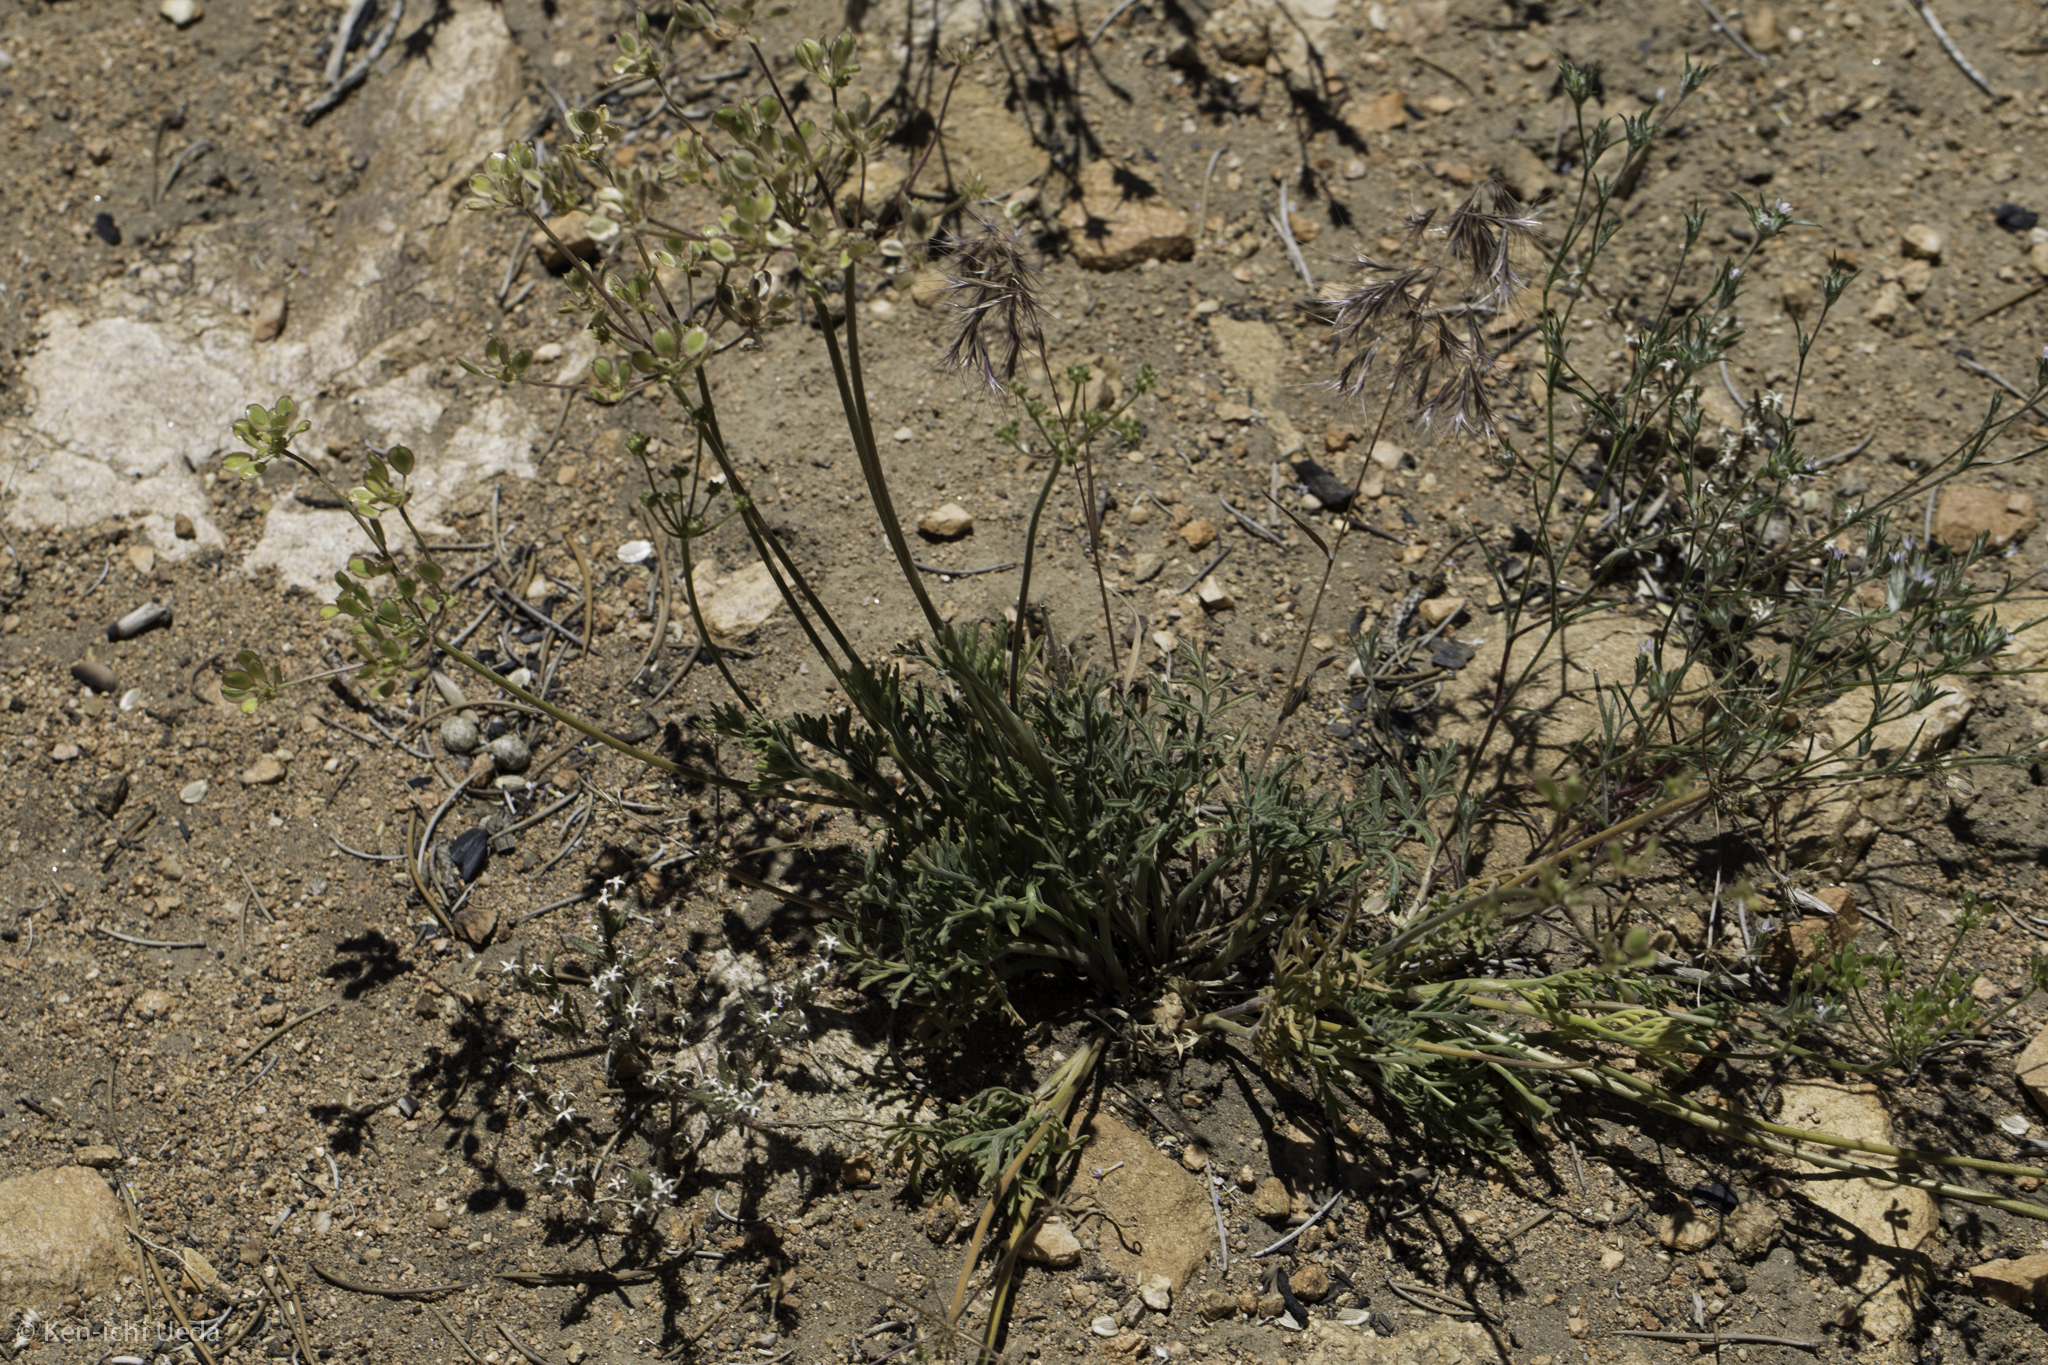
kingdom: Plantae
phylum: Tracheophyta
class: Magnoliopsida
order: Apiales
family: Apiaceae
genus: Lomatium
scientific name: Lomatium nevadense
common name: Nevada lomatium
